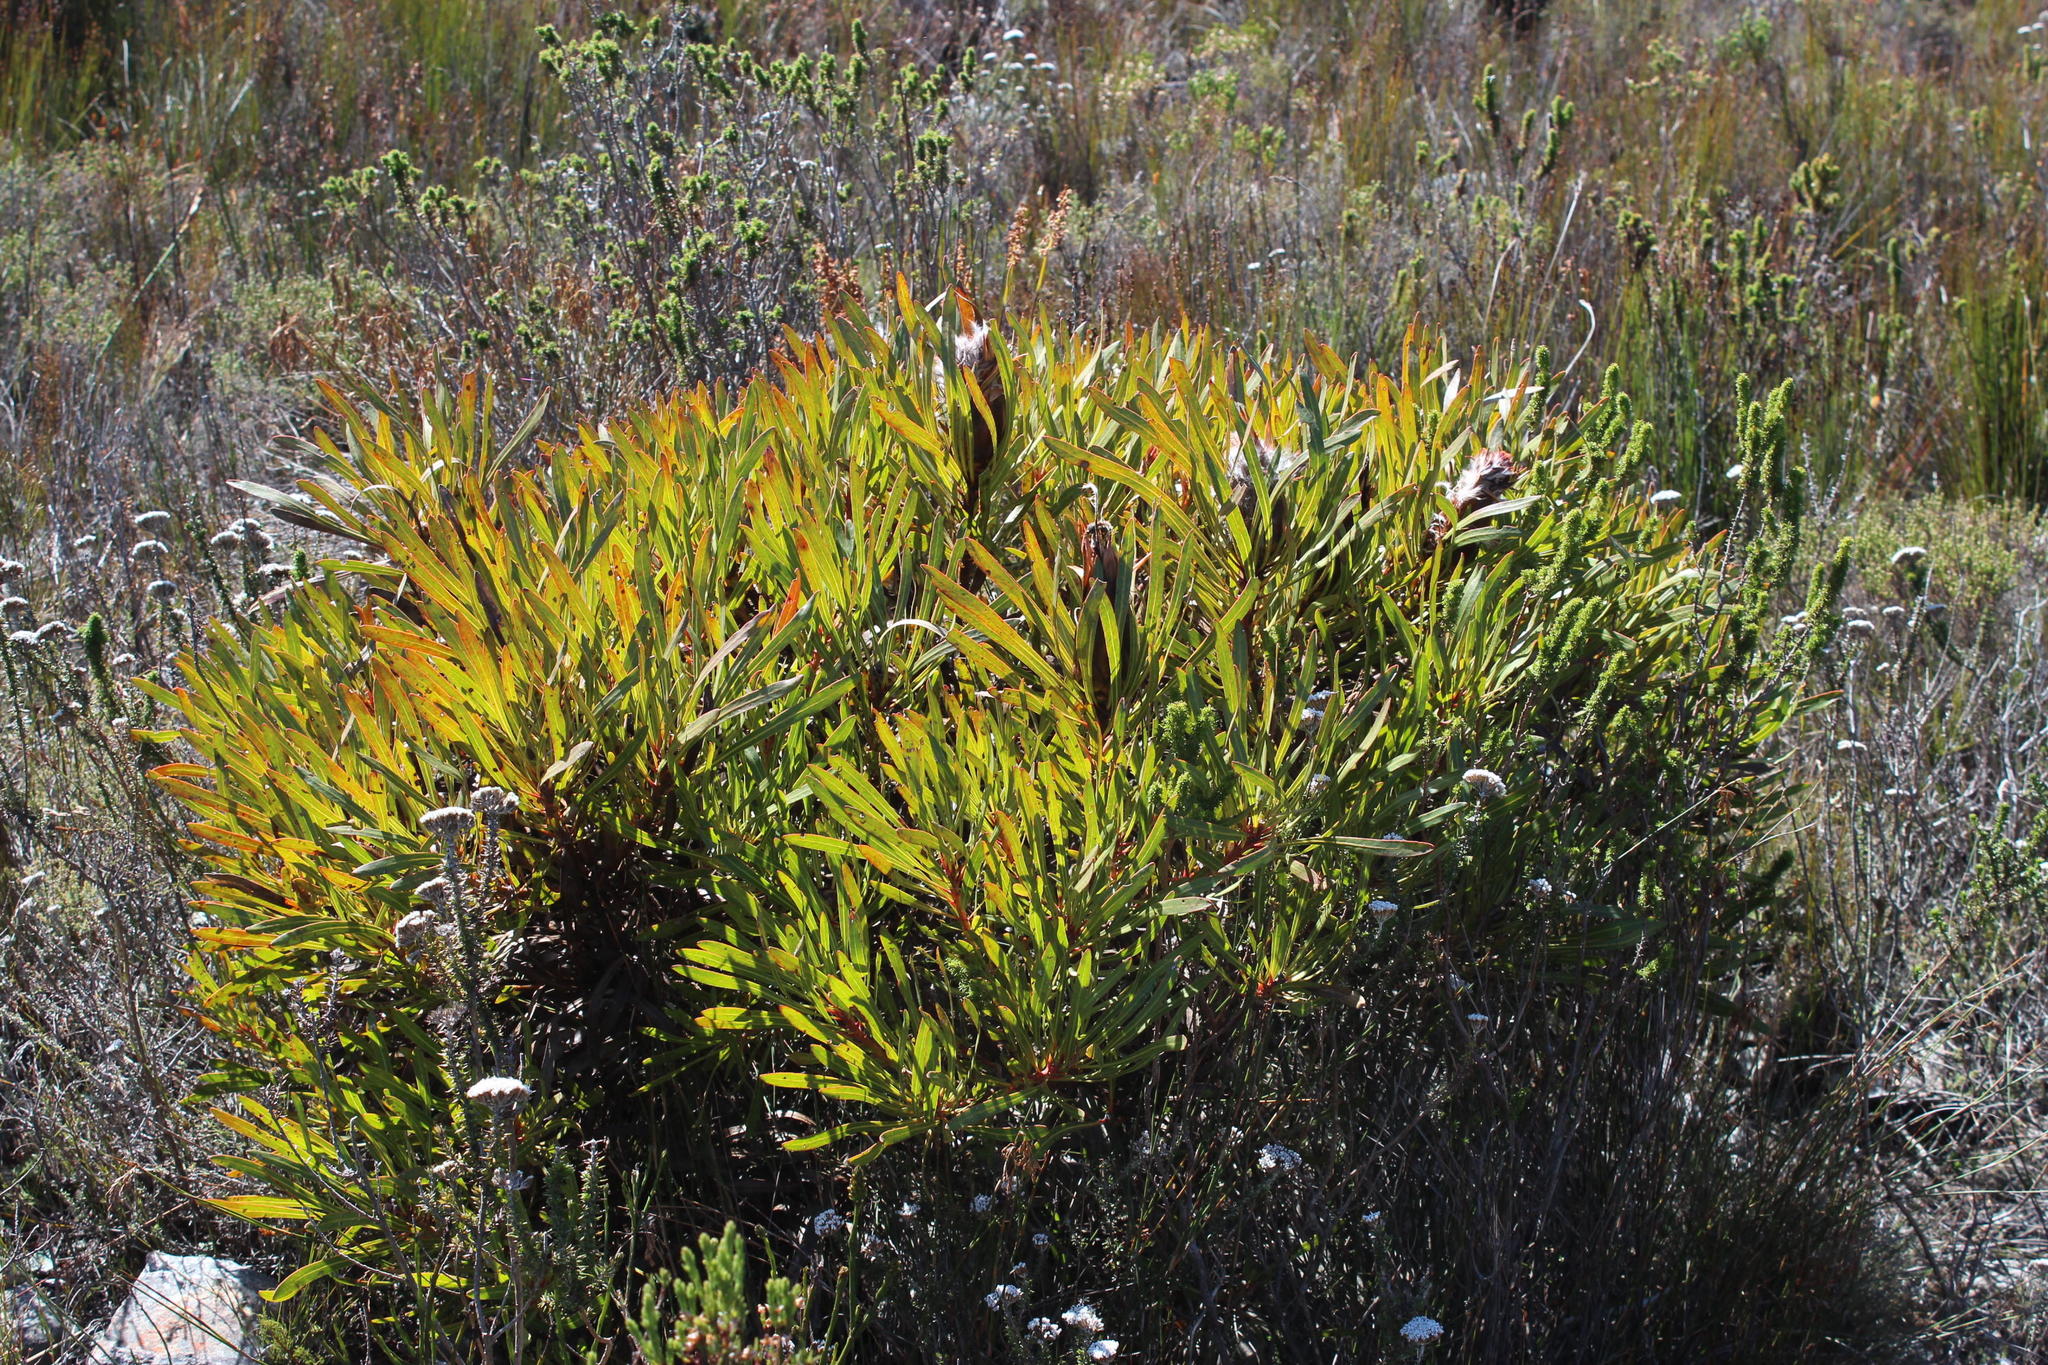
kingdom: Plantae
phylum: Tracheophyta
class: Magnoliopsida
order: Proteales
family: Proteaceae
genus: Protea
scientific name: Protea longifolia
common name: Long-leaf sugarbush
